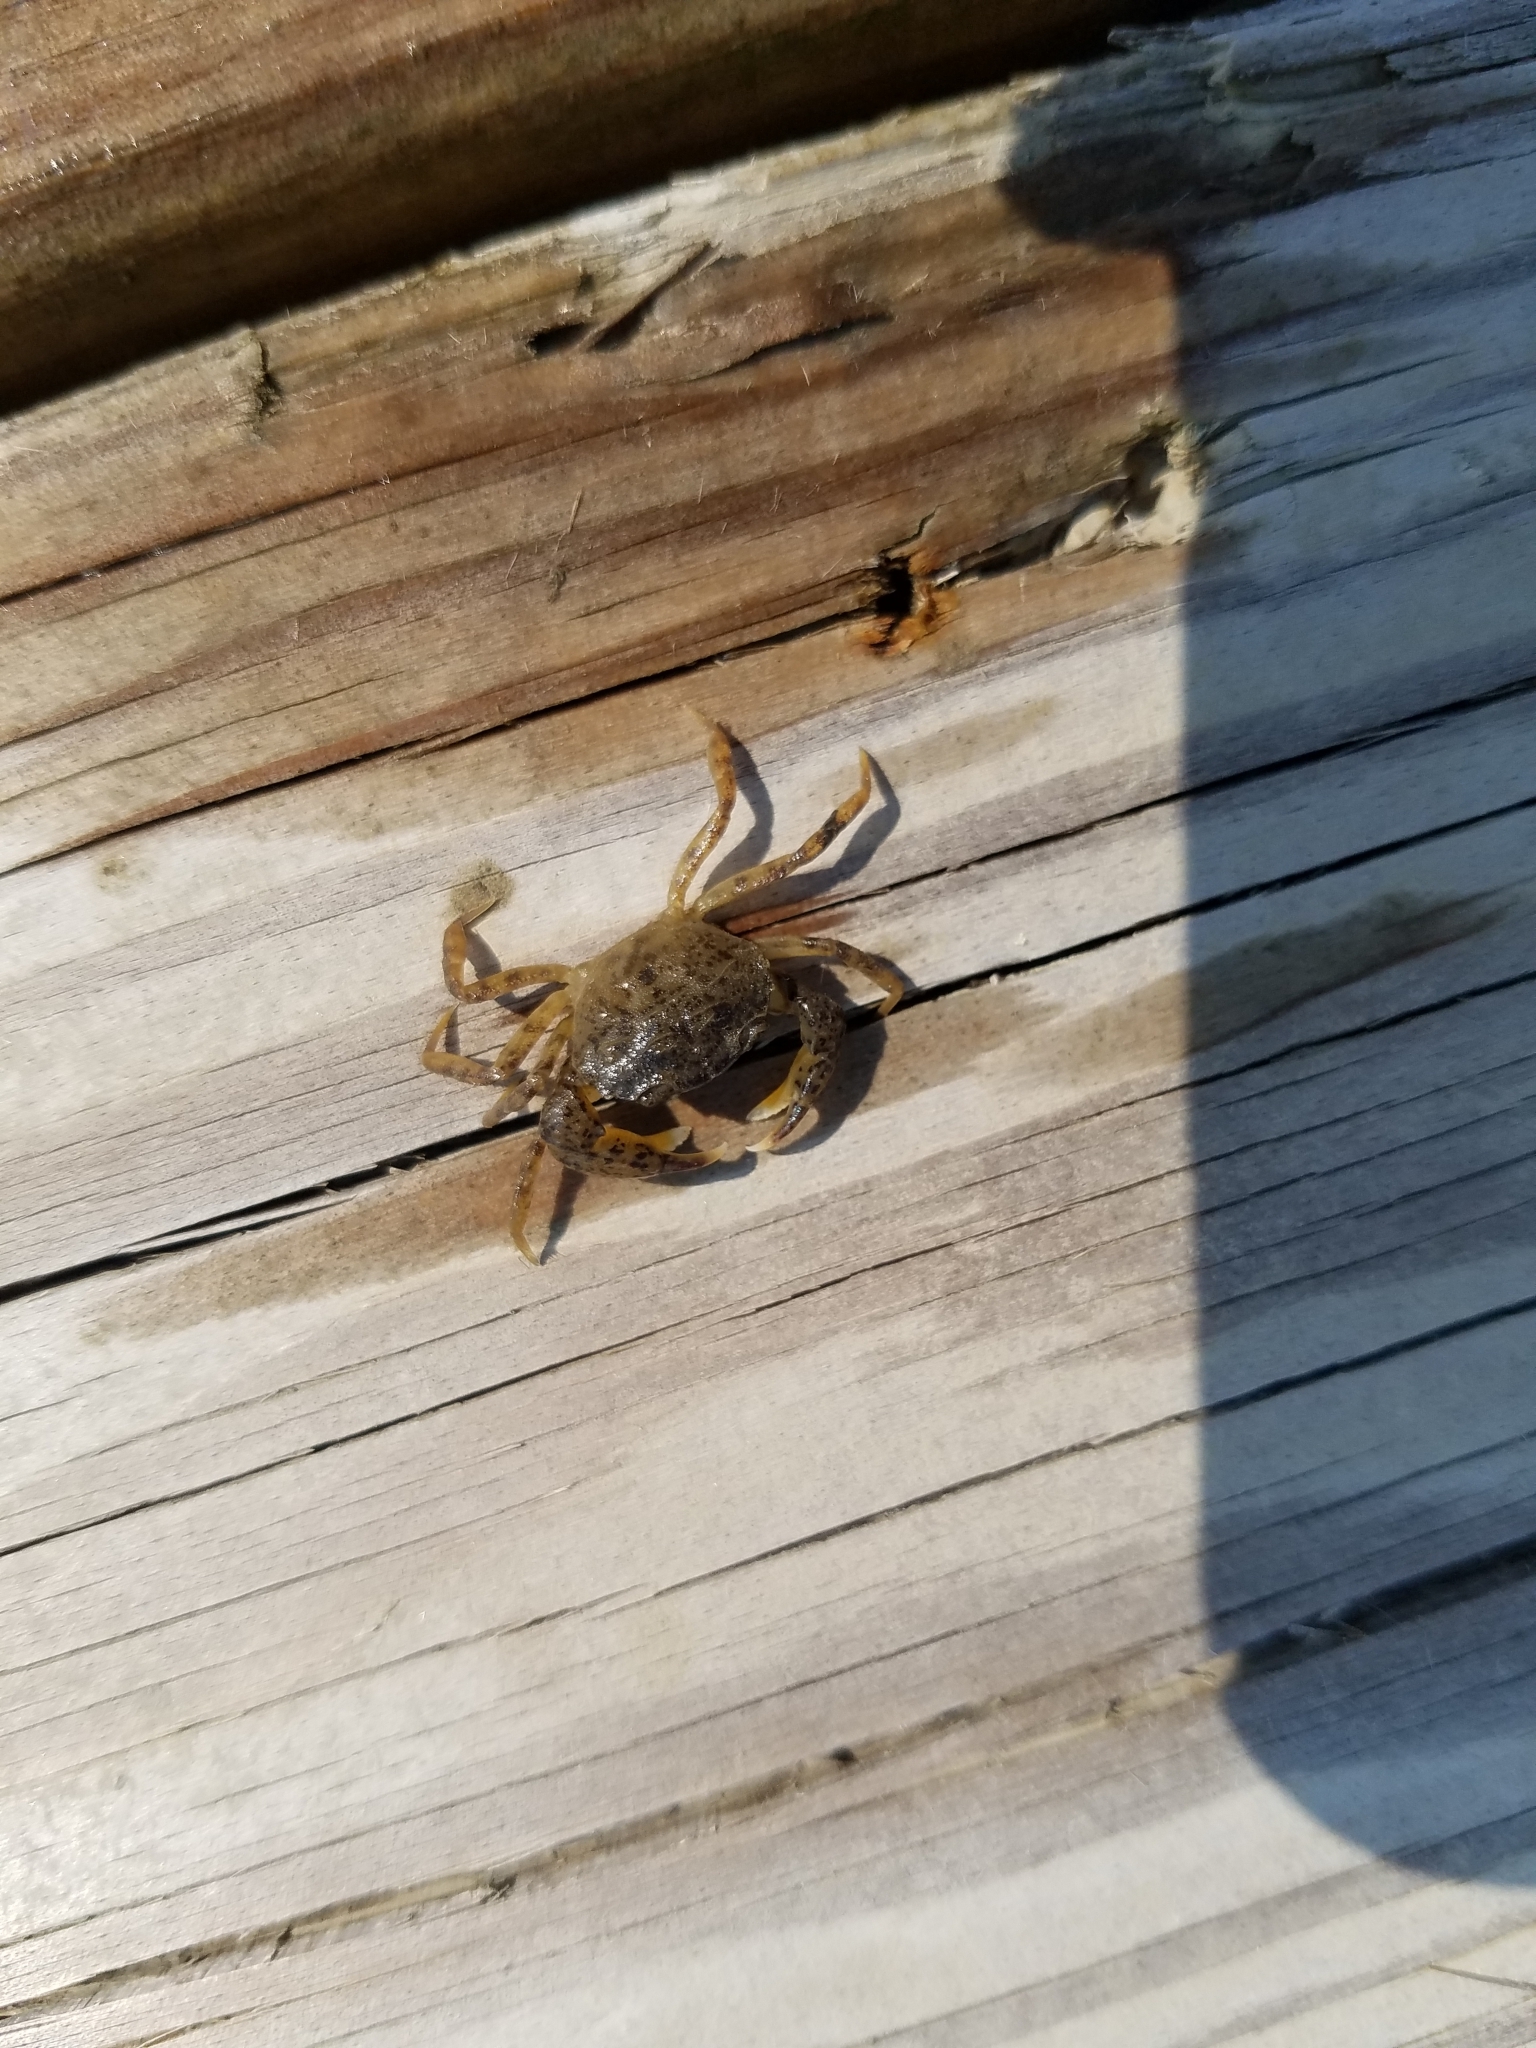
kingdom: Animalia
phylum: Arthropoda
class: Malacostraca
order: Decapoda
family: Panopeidae
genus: Rhithropanopeus
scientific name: Rhithropanopeus harrisii
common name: Dwarf crab
